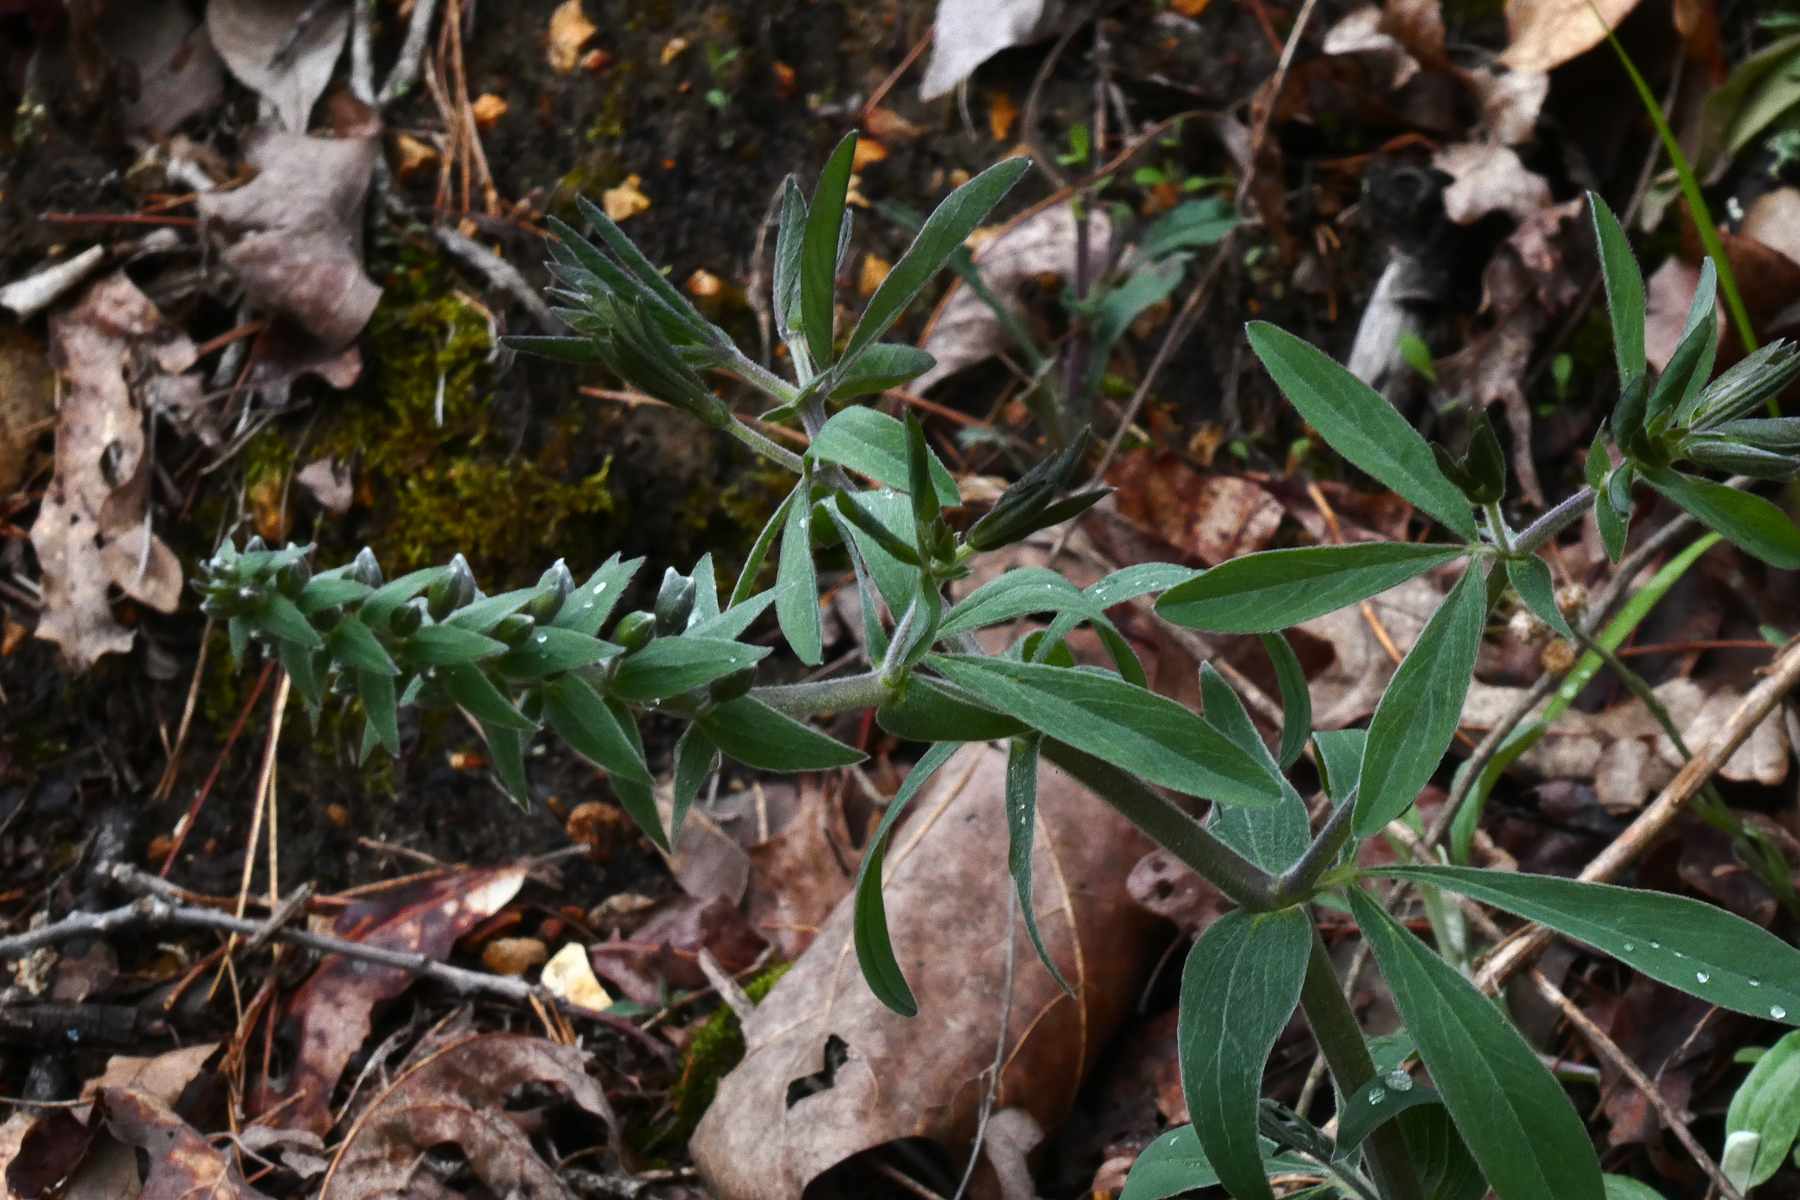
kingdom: Plantae
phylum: Tracheophyta
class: Magnoliopsida
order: Fabales
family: Fabaceae
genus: Baptisia
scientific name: Baptisia bracteata
